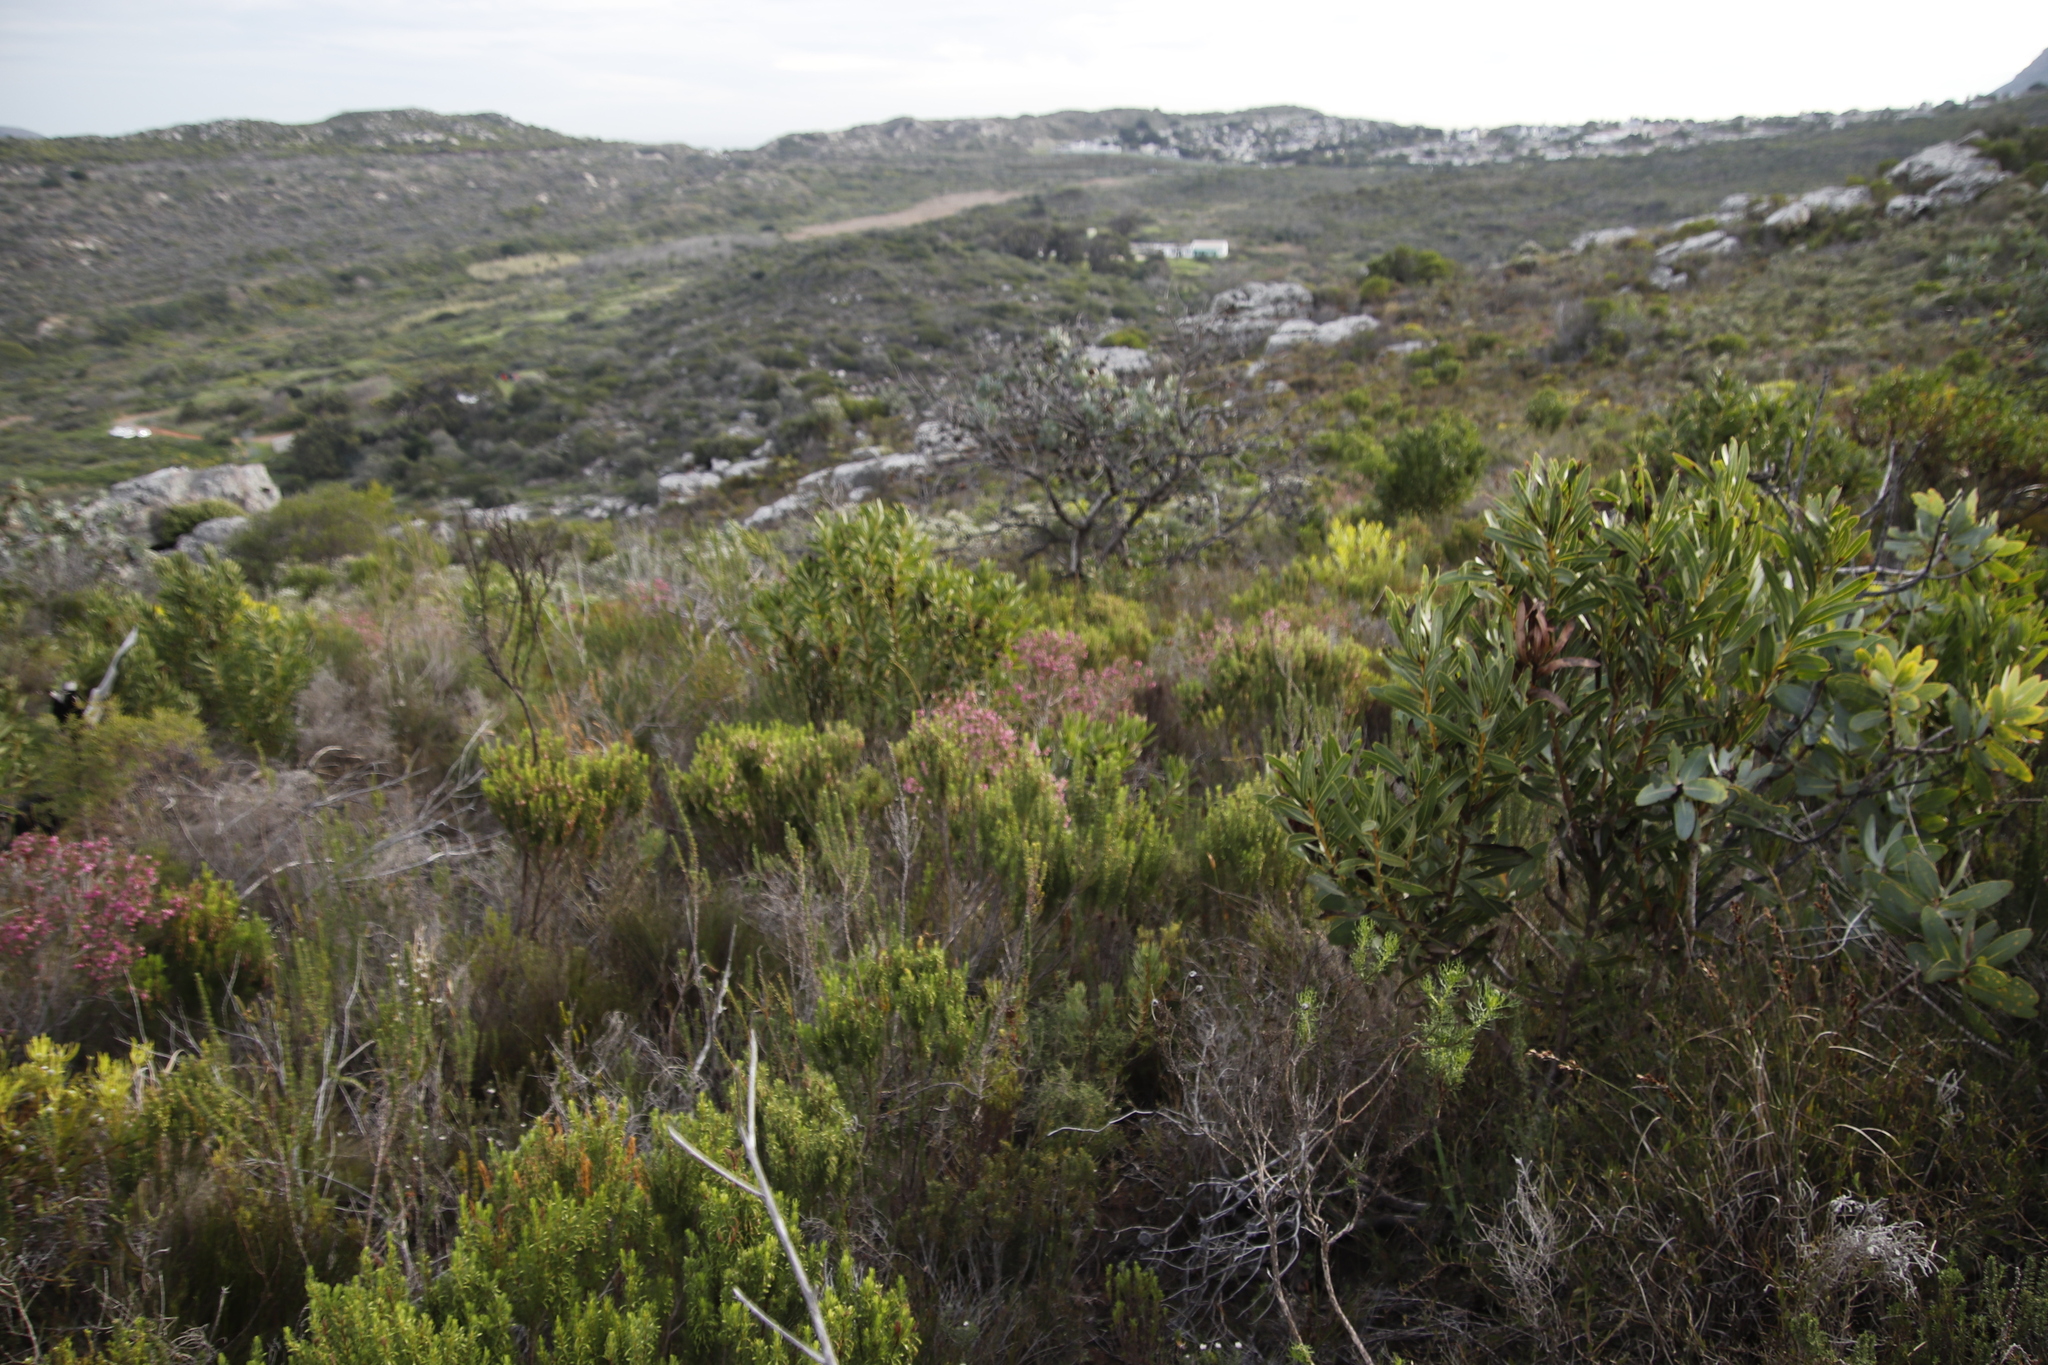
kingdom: Plantae
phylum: Tracheophyta
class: Magnoliopsida
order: Ericales
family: Ericaceae
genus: Erica
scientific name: Erica viscaria
